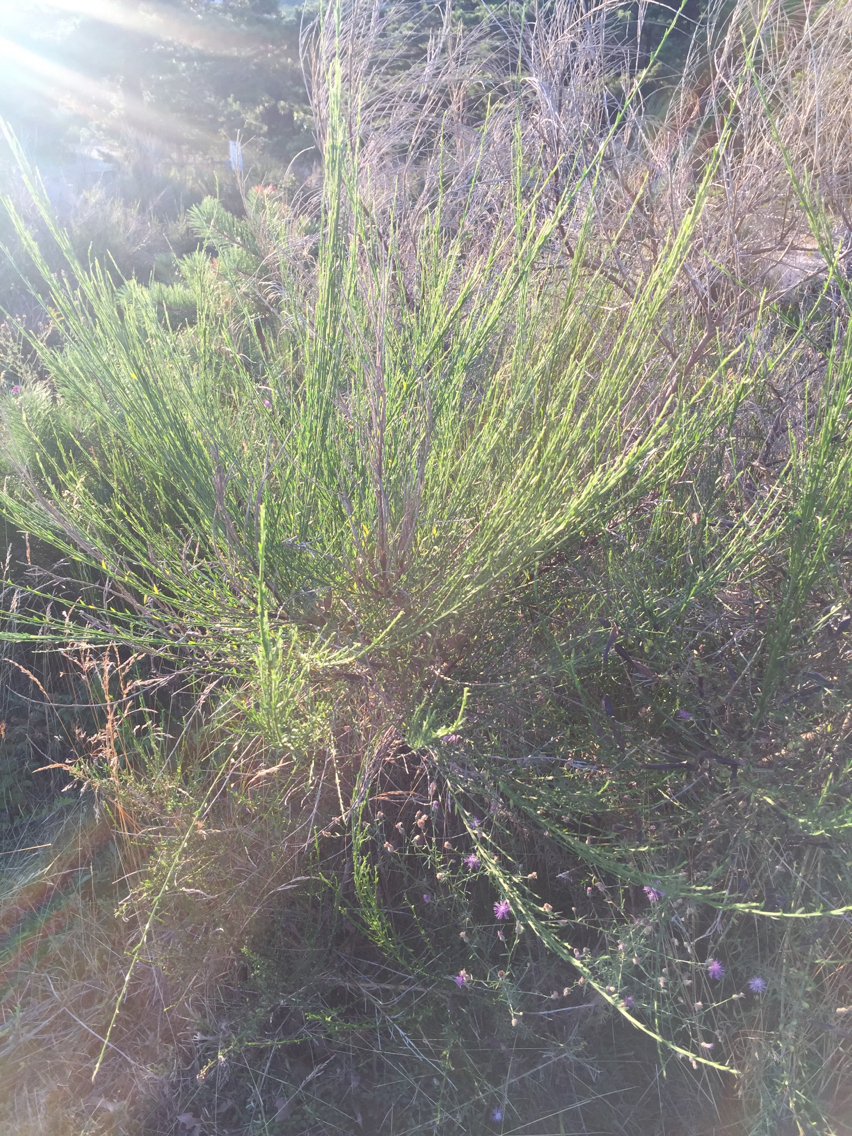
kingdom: Plantae
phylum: Tracheophyta
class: Magnoliopsida
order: Fabales
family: Fabaceae
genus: Cytisus
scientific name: Cytisus scoparius
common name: Scotch broom
